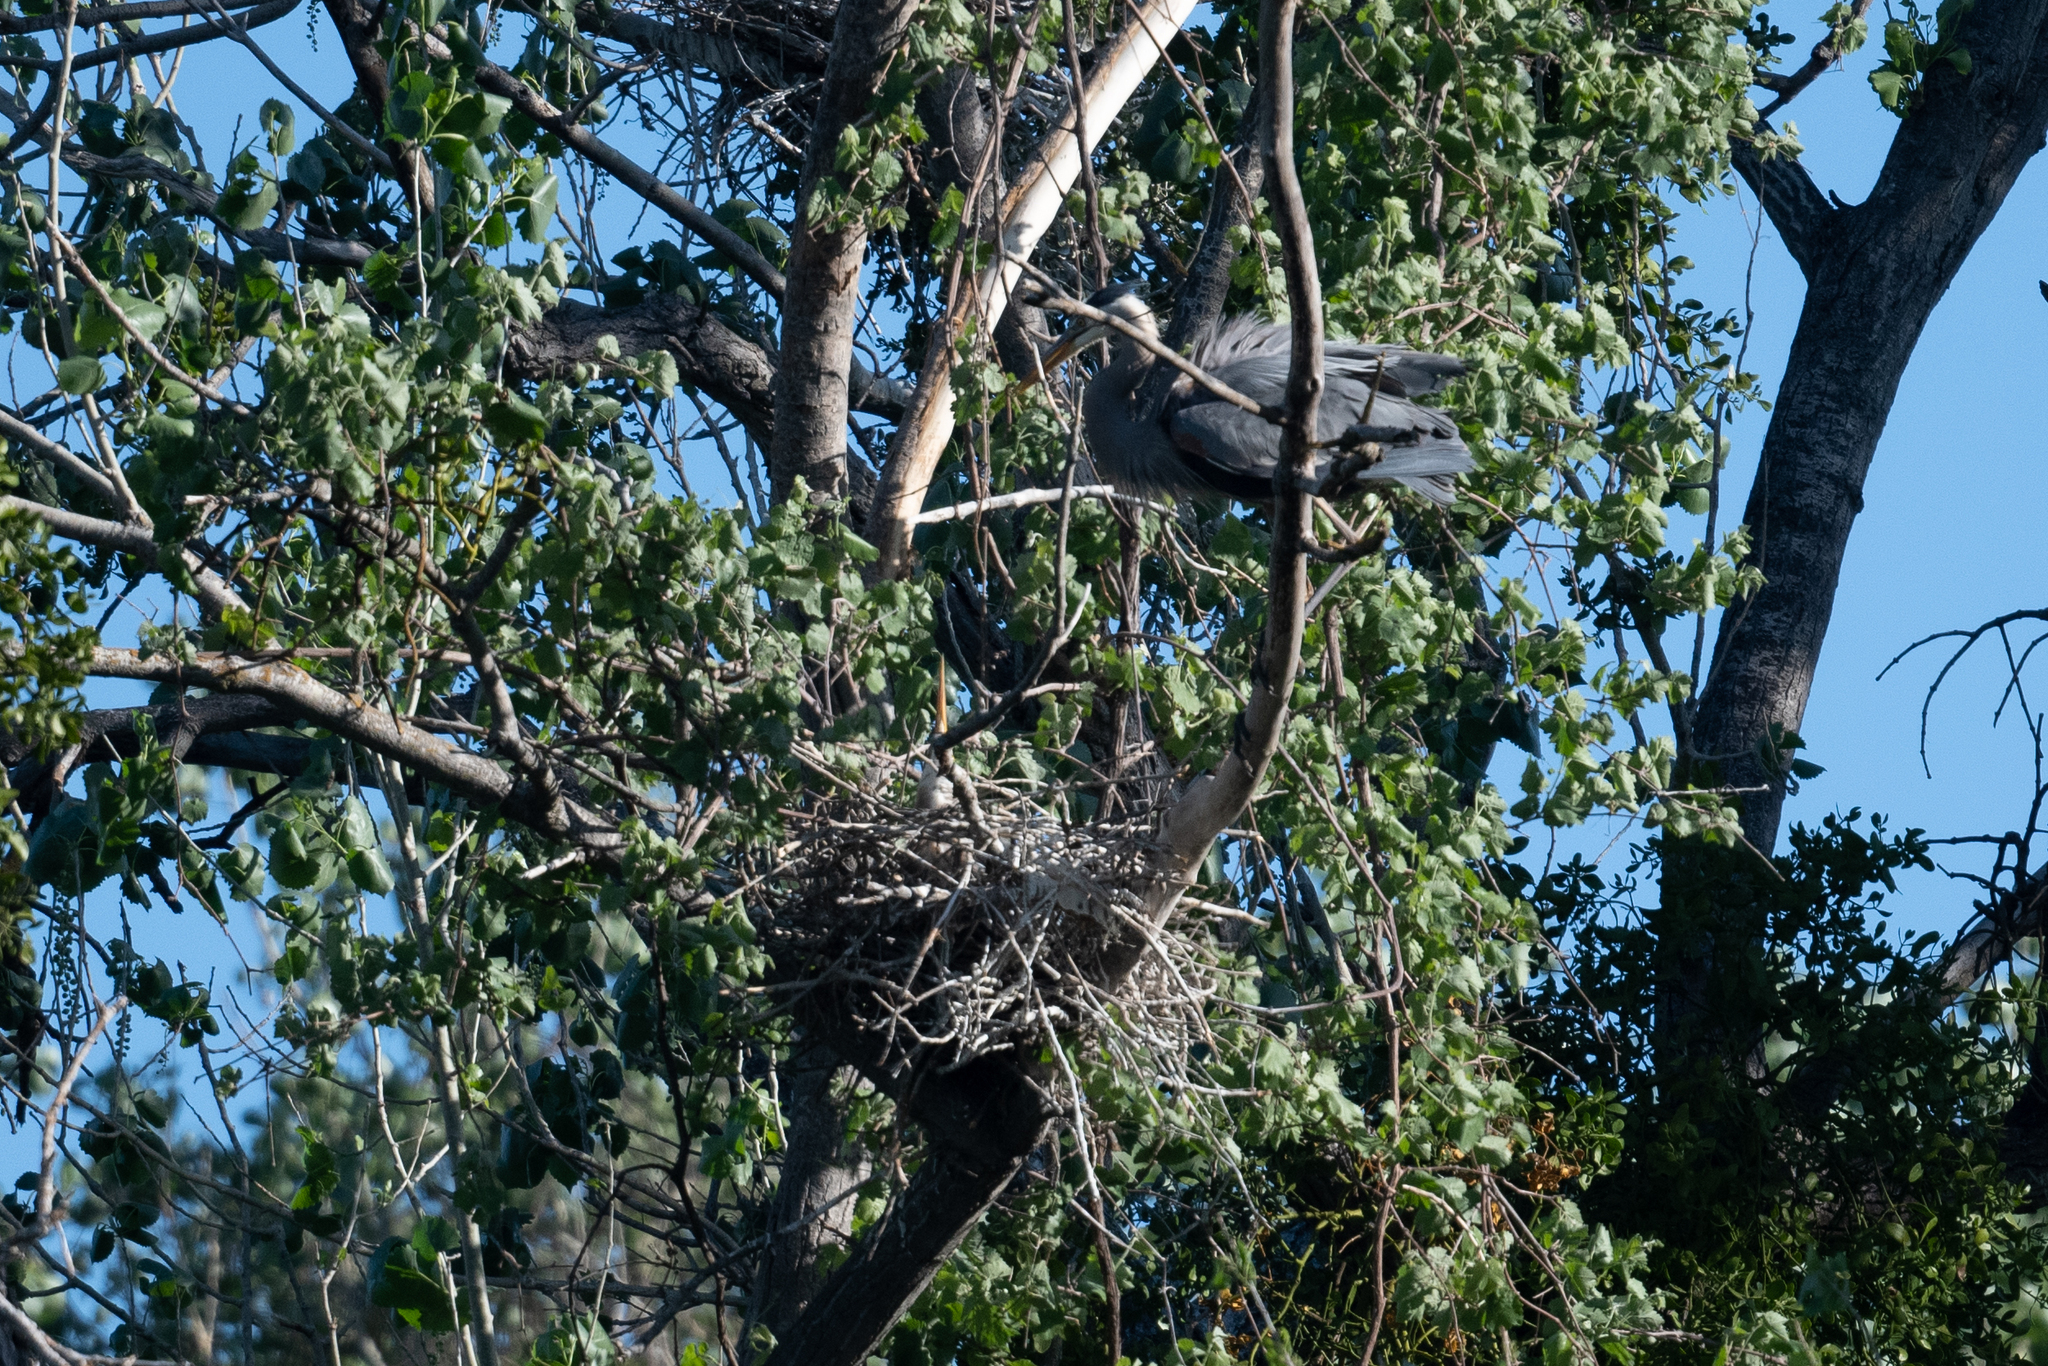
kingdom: Animalia
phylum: Chordata
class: Aves
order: Pelecaniformes
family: Ardeidae
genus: Ardea
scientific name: Ardea herodias
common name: Great blue heron
